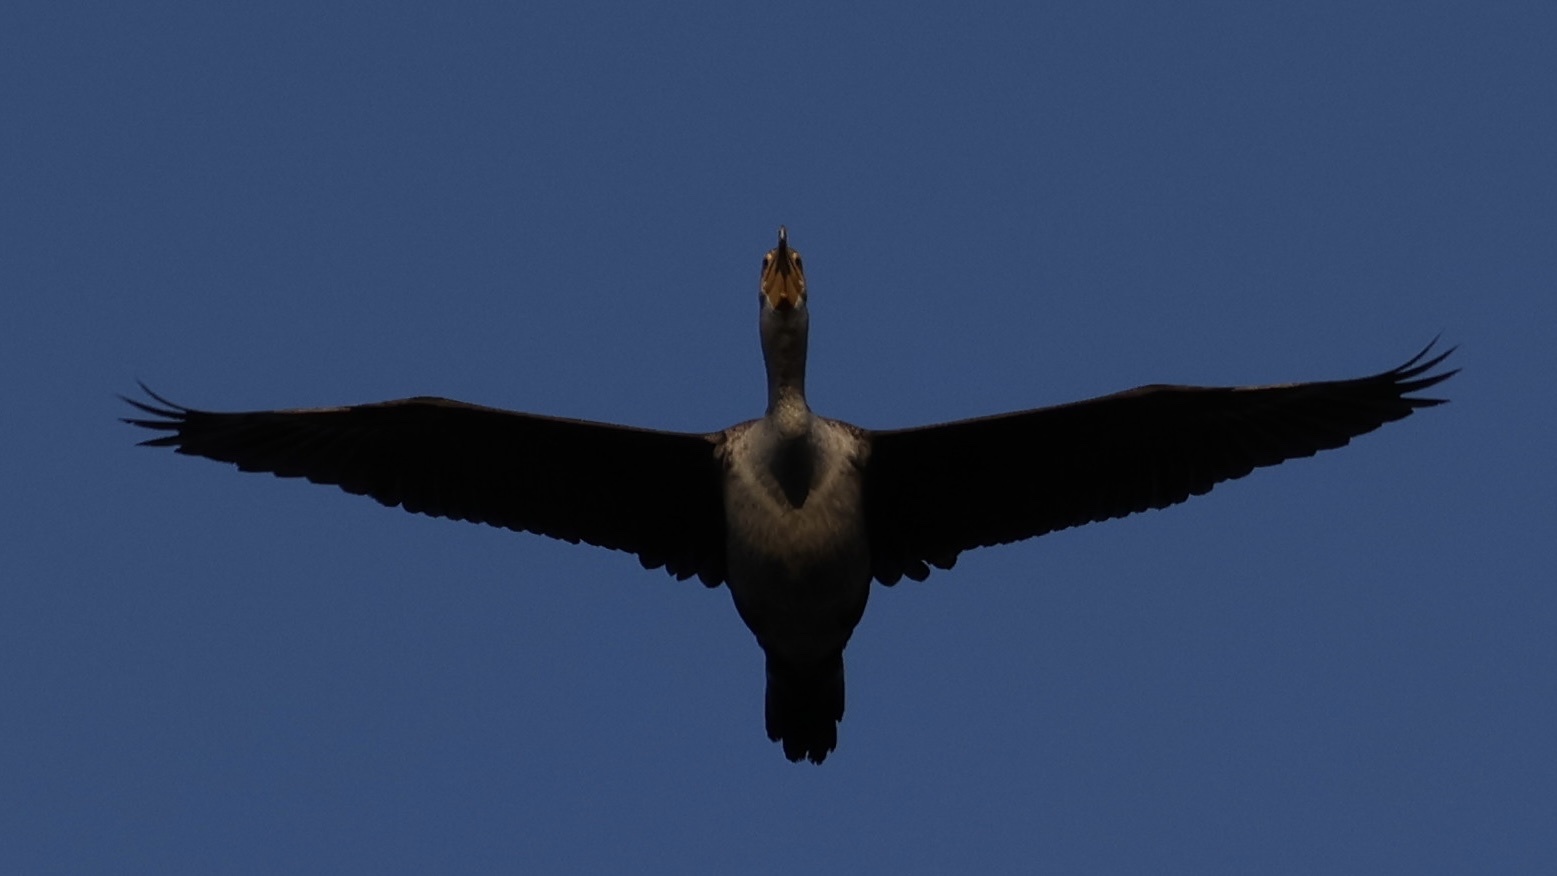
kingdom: Animalia
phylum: Chordata
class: Aves
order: Suliformes
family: Phalacrocoracidae
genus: Phalacrocorax
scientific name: Phalacrocorax auritus
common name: Double-crested cormorant
